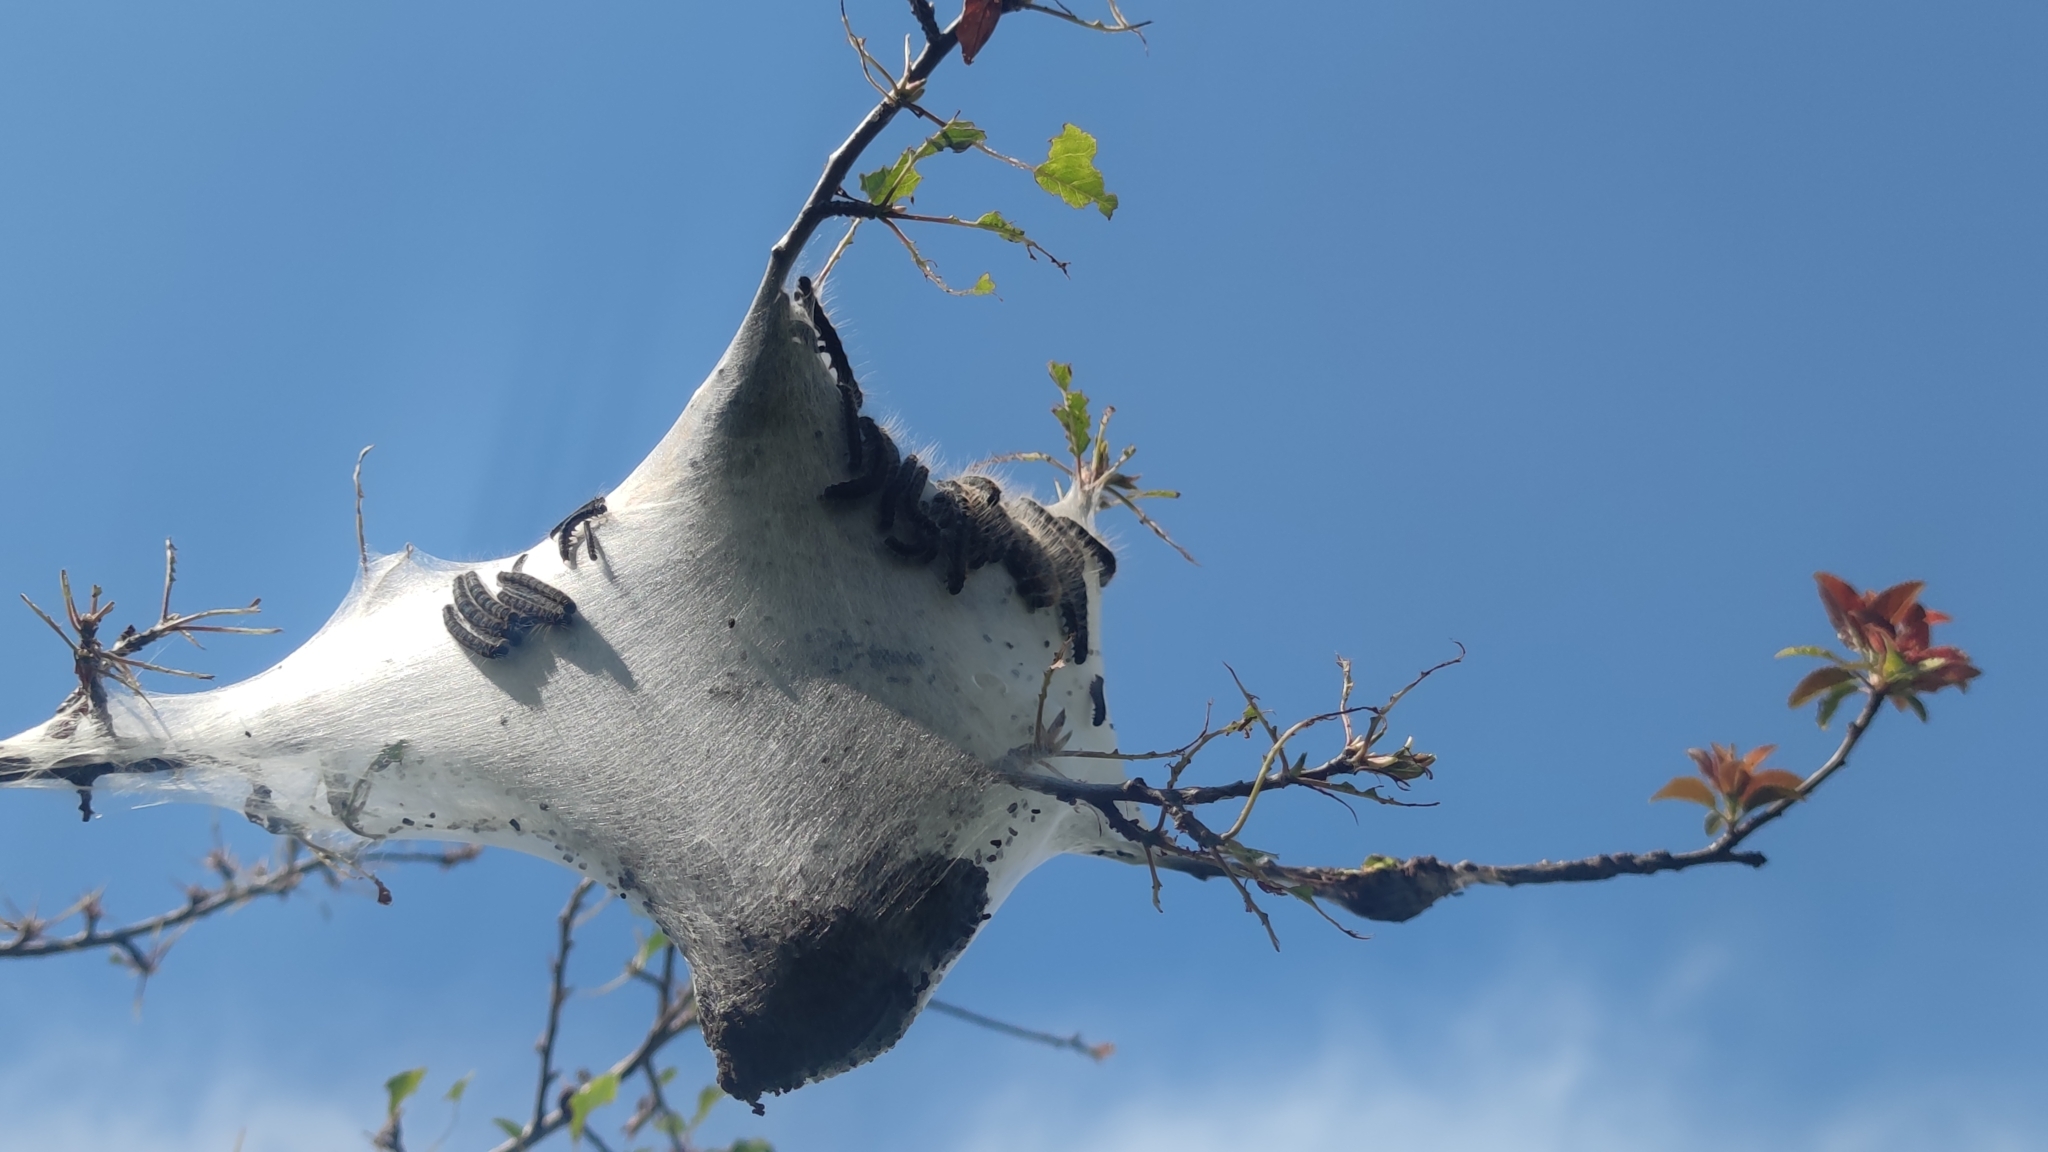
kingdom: Animalia
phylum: Arthropoda
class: Insecta
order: Lepidoptera
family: Lasiocampidae
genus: Eriogaster
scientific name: Eriogaster lanestris
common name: Small eggar
